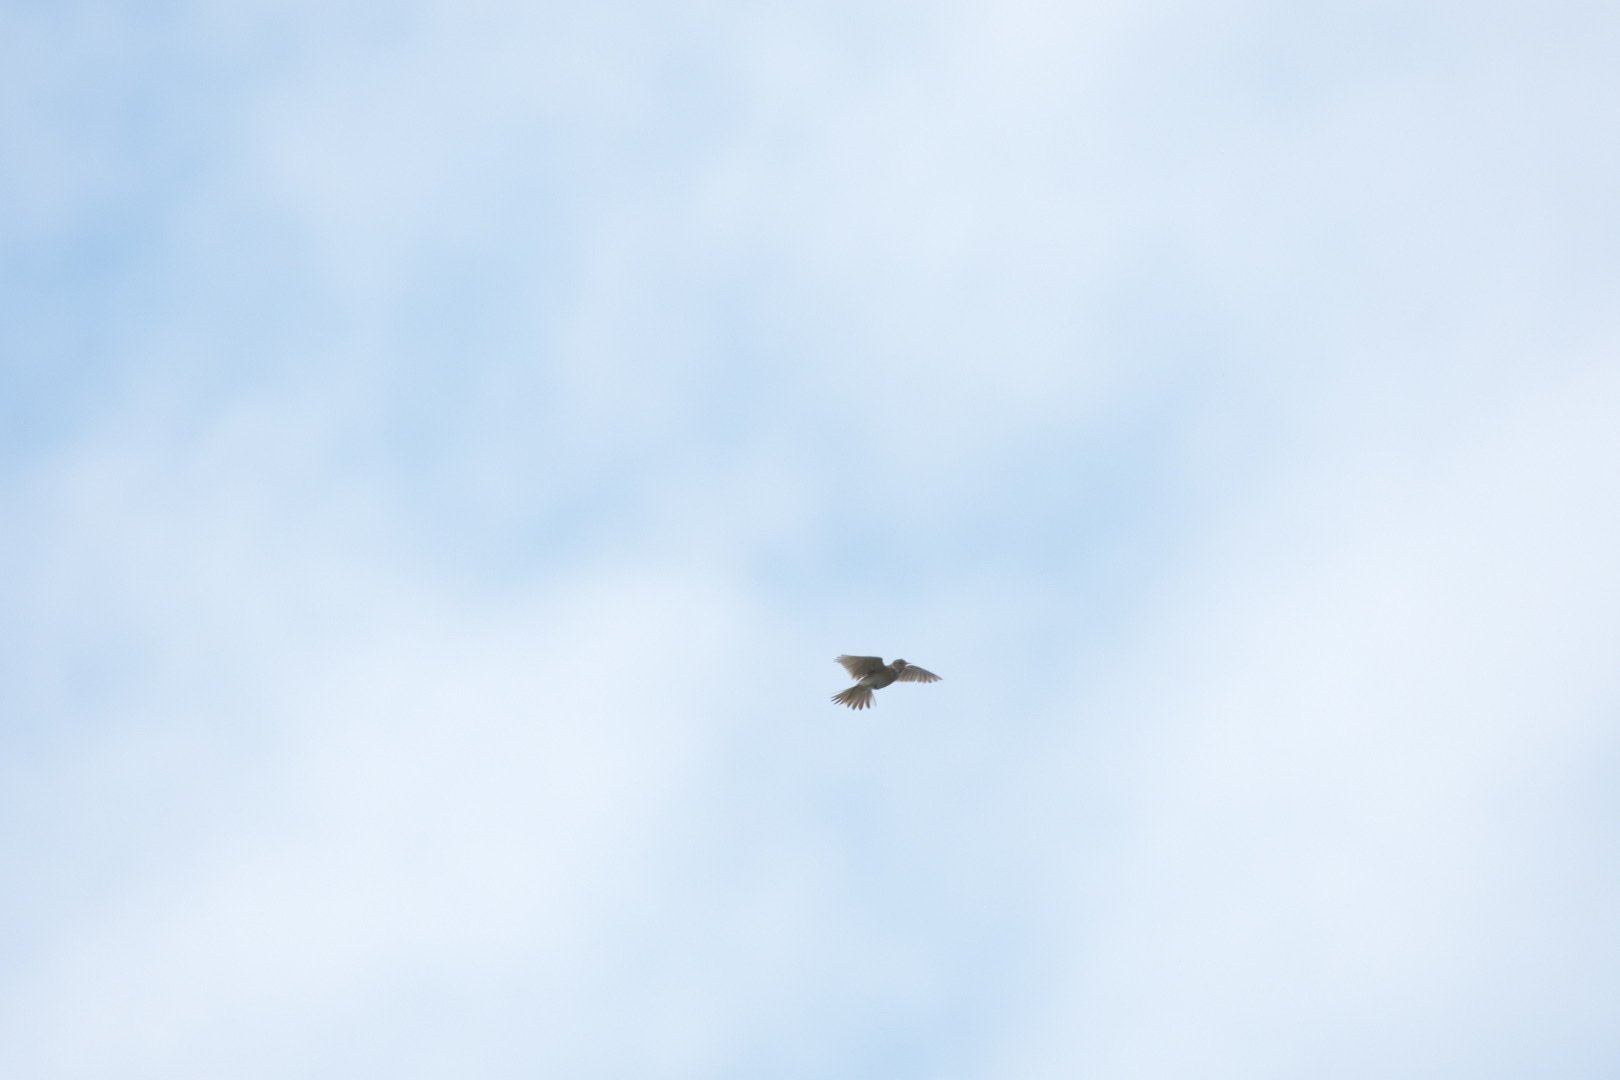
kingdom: Animalia
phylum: Chordata
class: Aves
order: Passeriformes
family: Alaudidae
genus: Alauda
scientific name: Alauda arvensis
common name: Eurasian skylark
